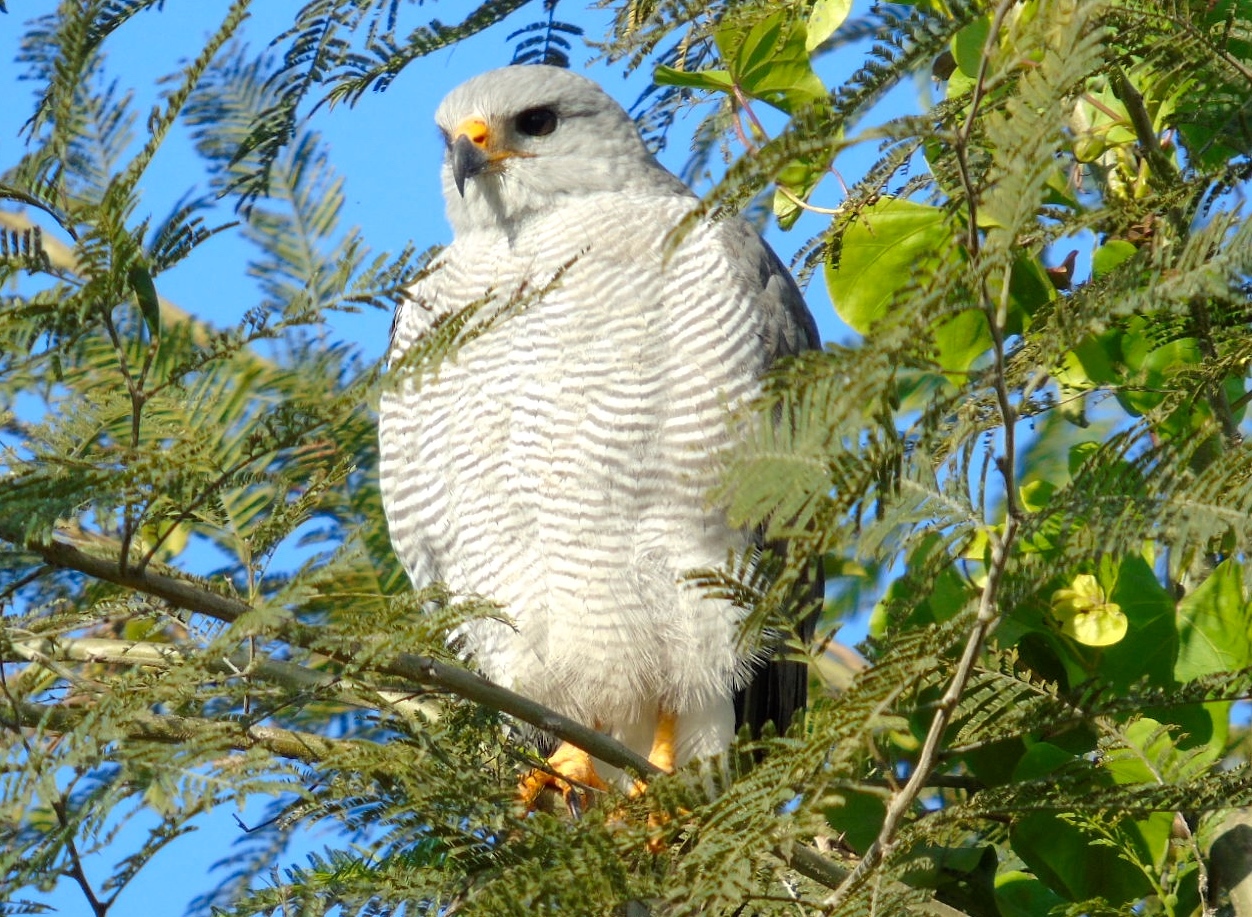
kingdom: Animalia
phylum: Chordata
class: Aves
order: Accipitriformes
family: Accipitridae
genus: Buteo
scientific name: Buteo nitidus
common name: Grey-lined hawk
